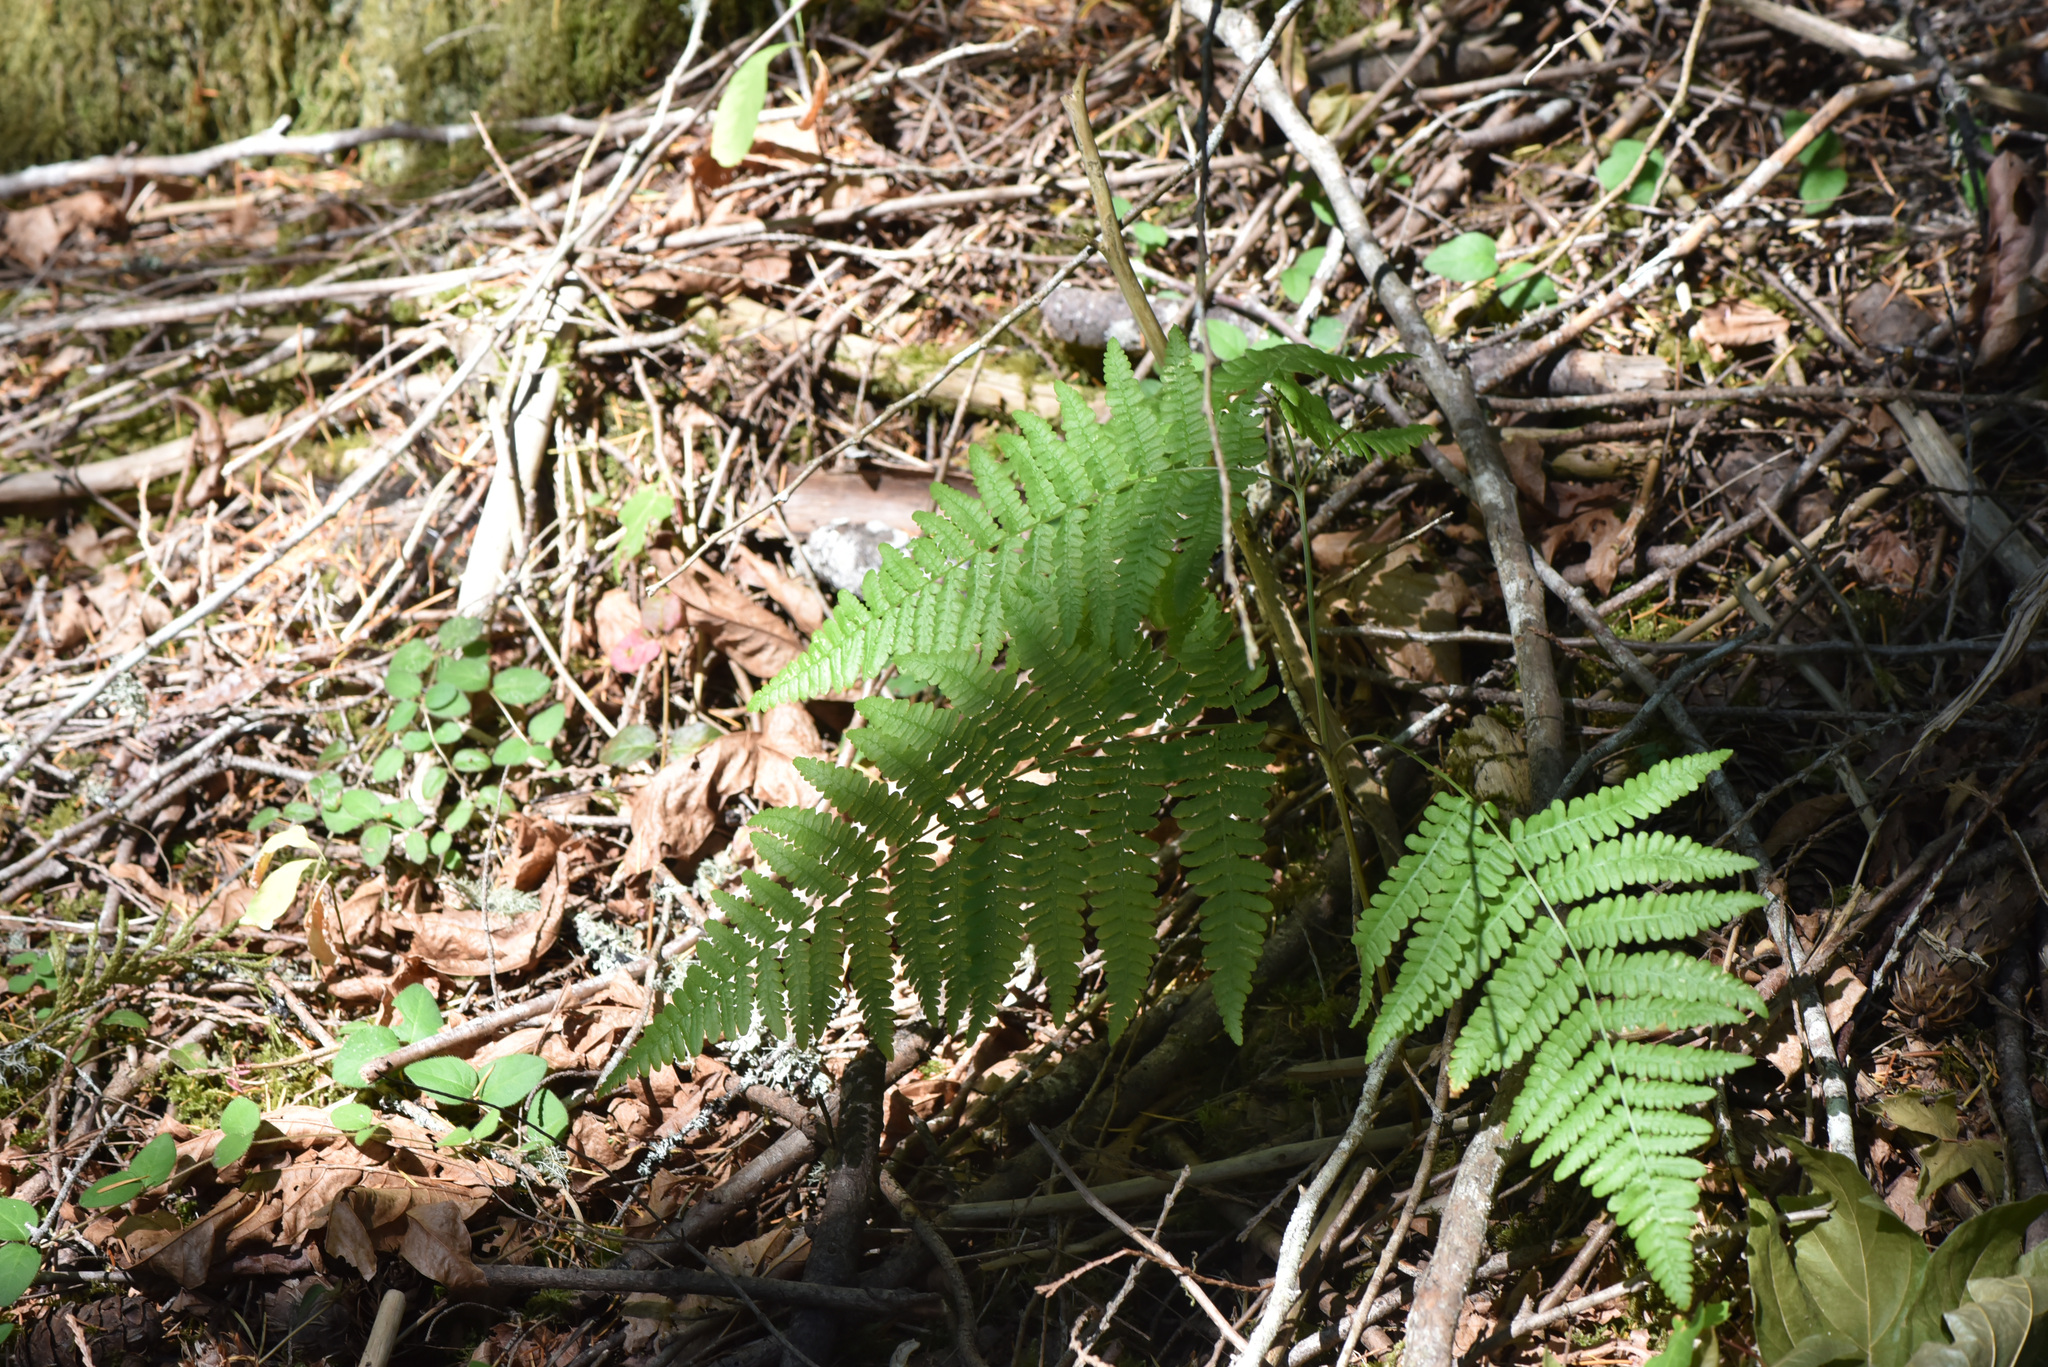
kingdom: Plantae
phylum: Tracheophyta
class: Polypodiopsida
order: Polypodiales
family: Dennstaedtiaceae
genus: Pteridium
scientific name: Pteridium aquilinum
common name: Bracken
